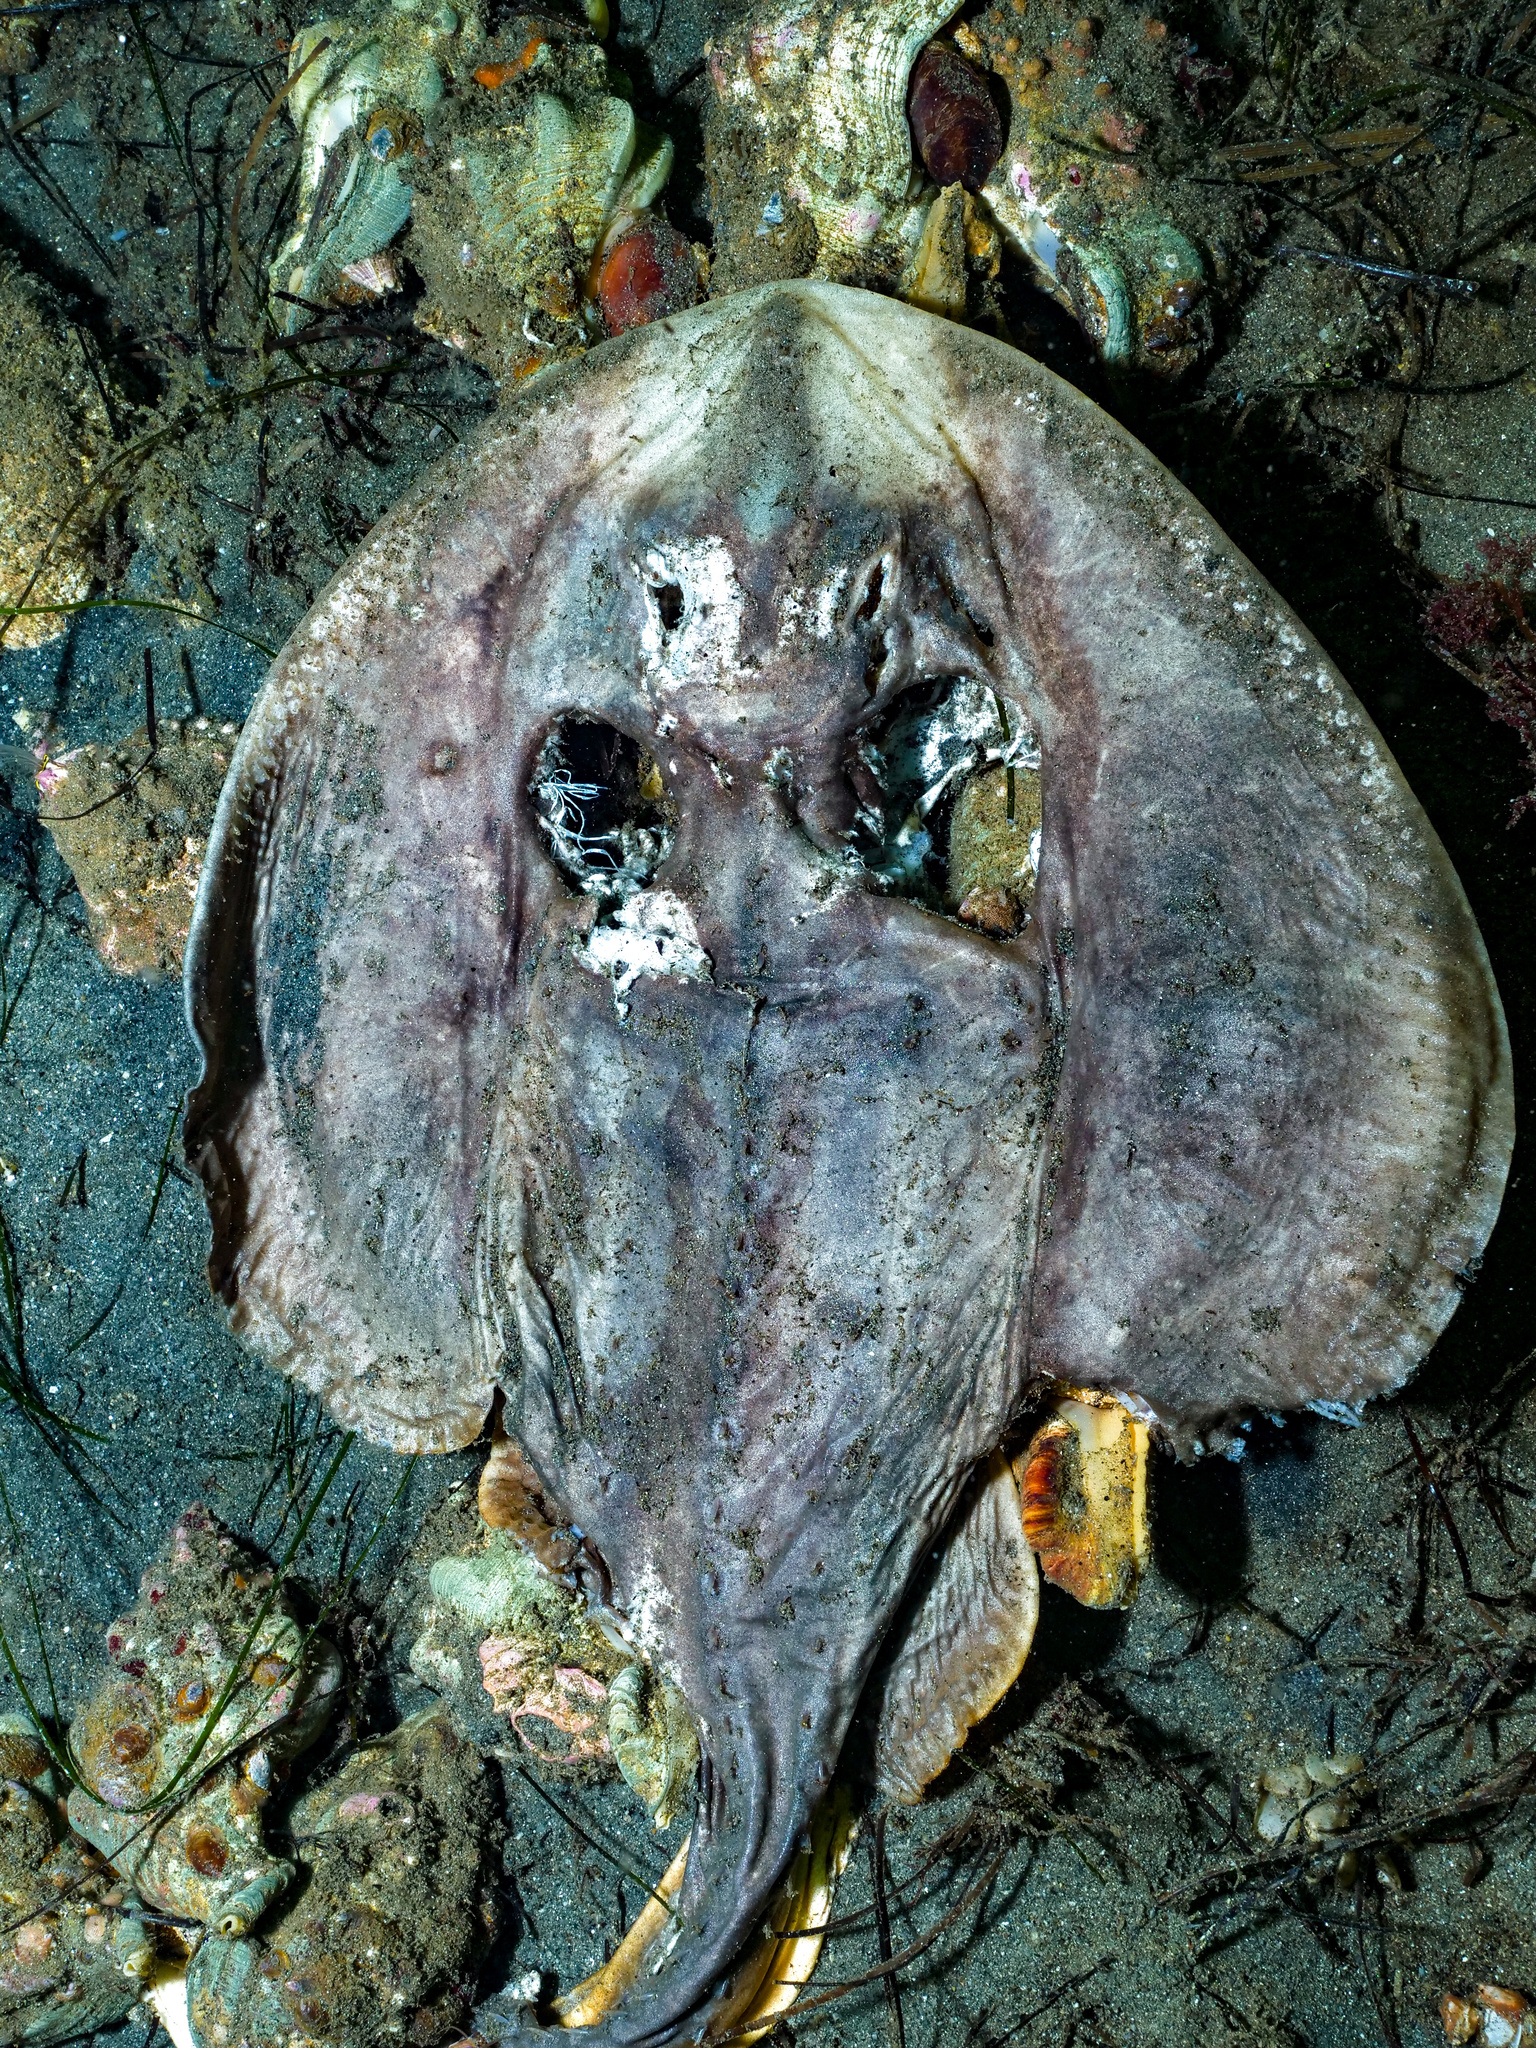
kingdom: Animalia
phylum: Chordata
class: Elasmobranchii
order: Rhinopristiformes
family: Rhinobatidae
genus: Platyrhinoidis
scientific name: Platyrhinoidis triseriata
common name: Thornback
